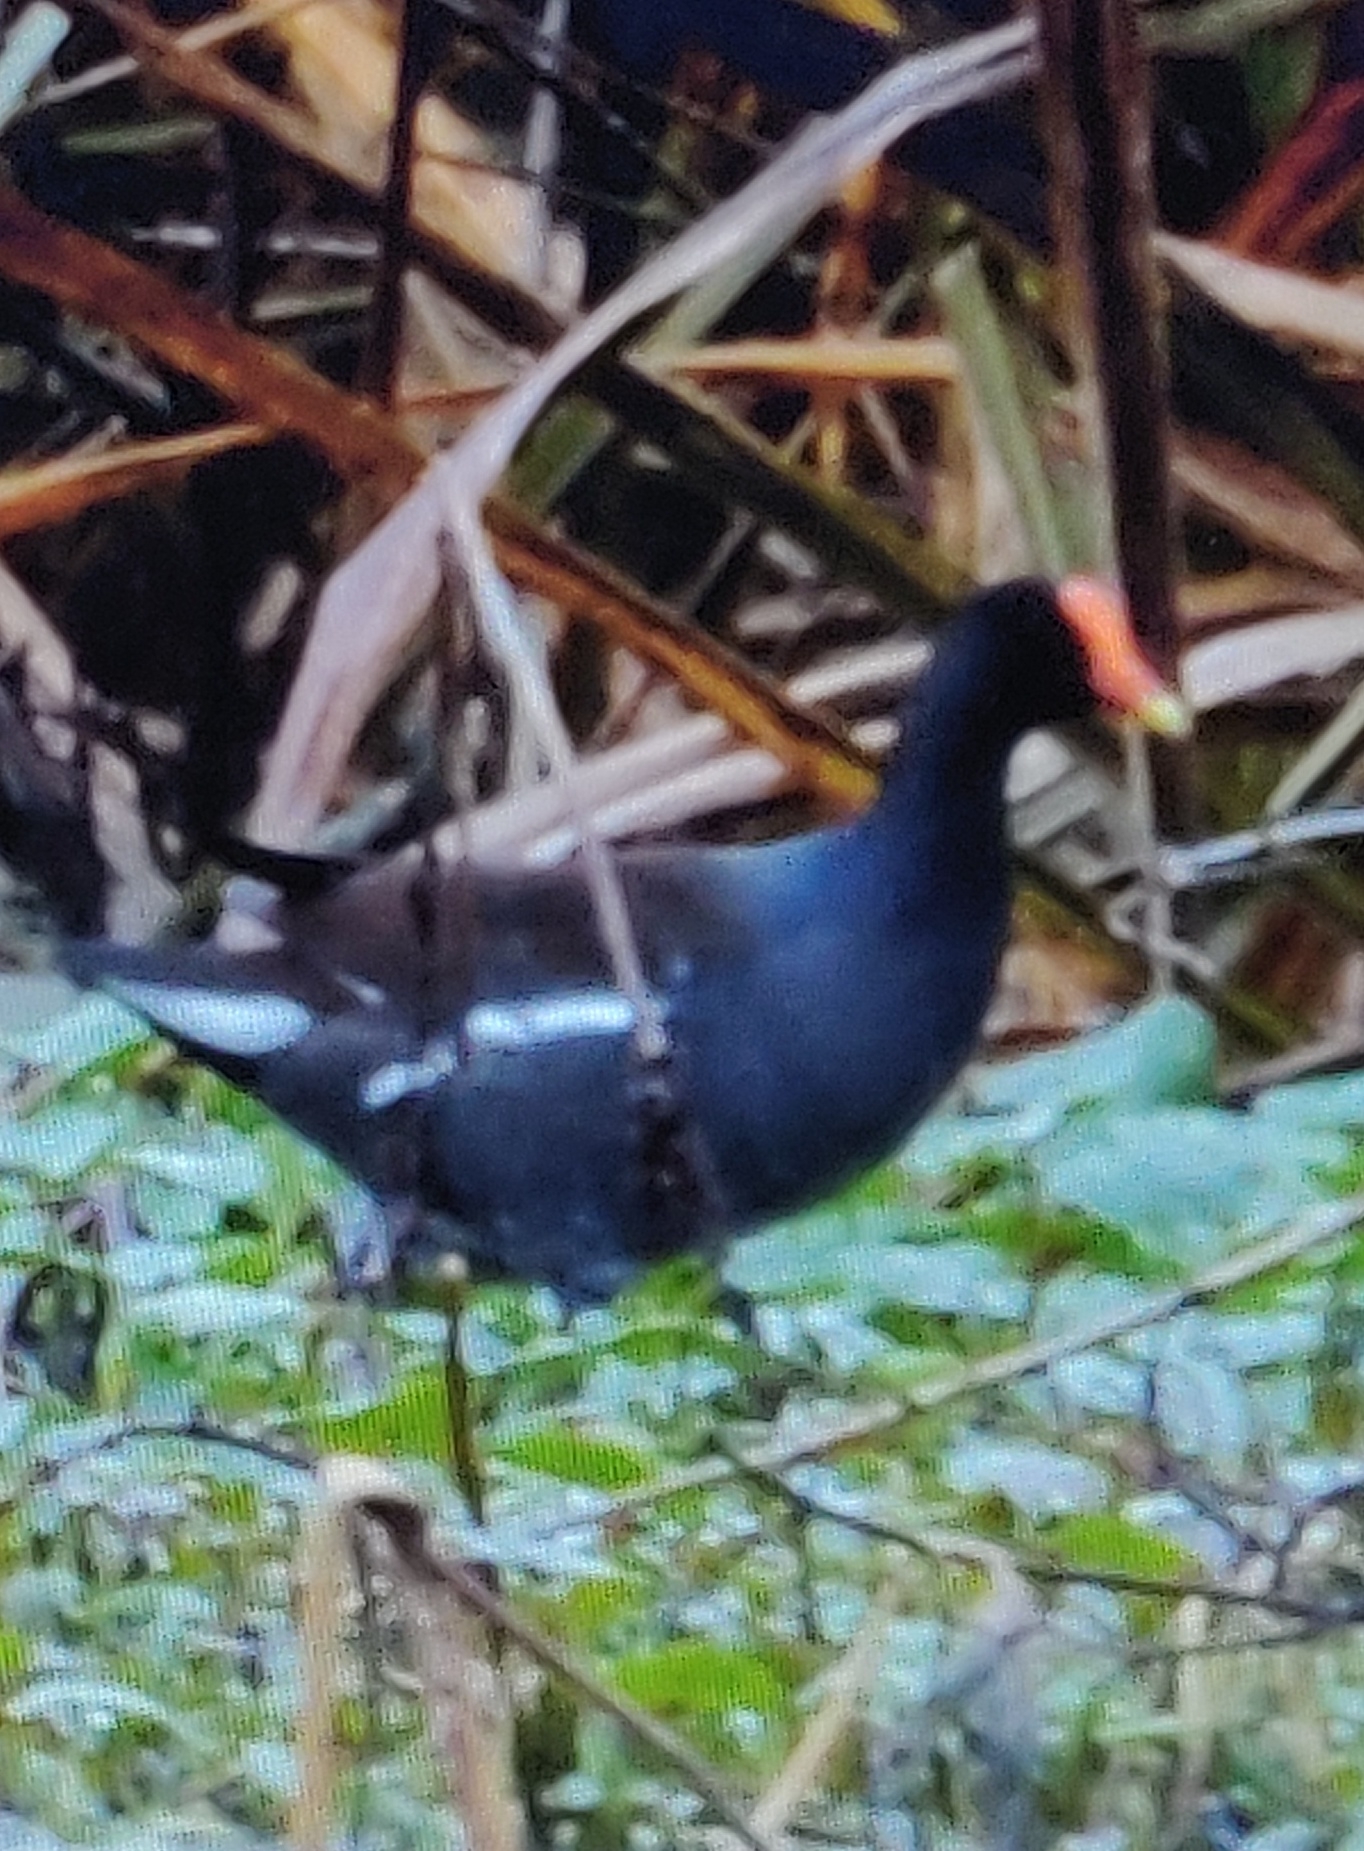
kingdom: Animalia
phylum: Chordata
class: Aves
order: Gruiformes
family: Rallidae
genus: Gallinula
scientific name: Gallinula chloropus
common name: Common moorhen
